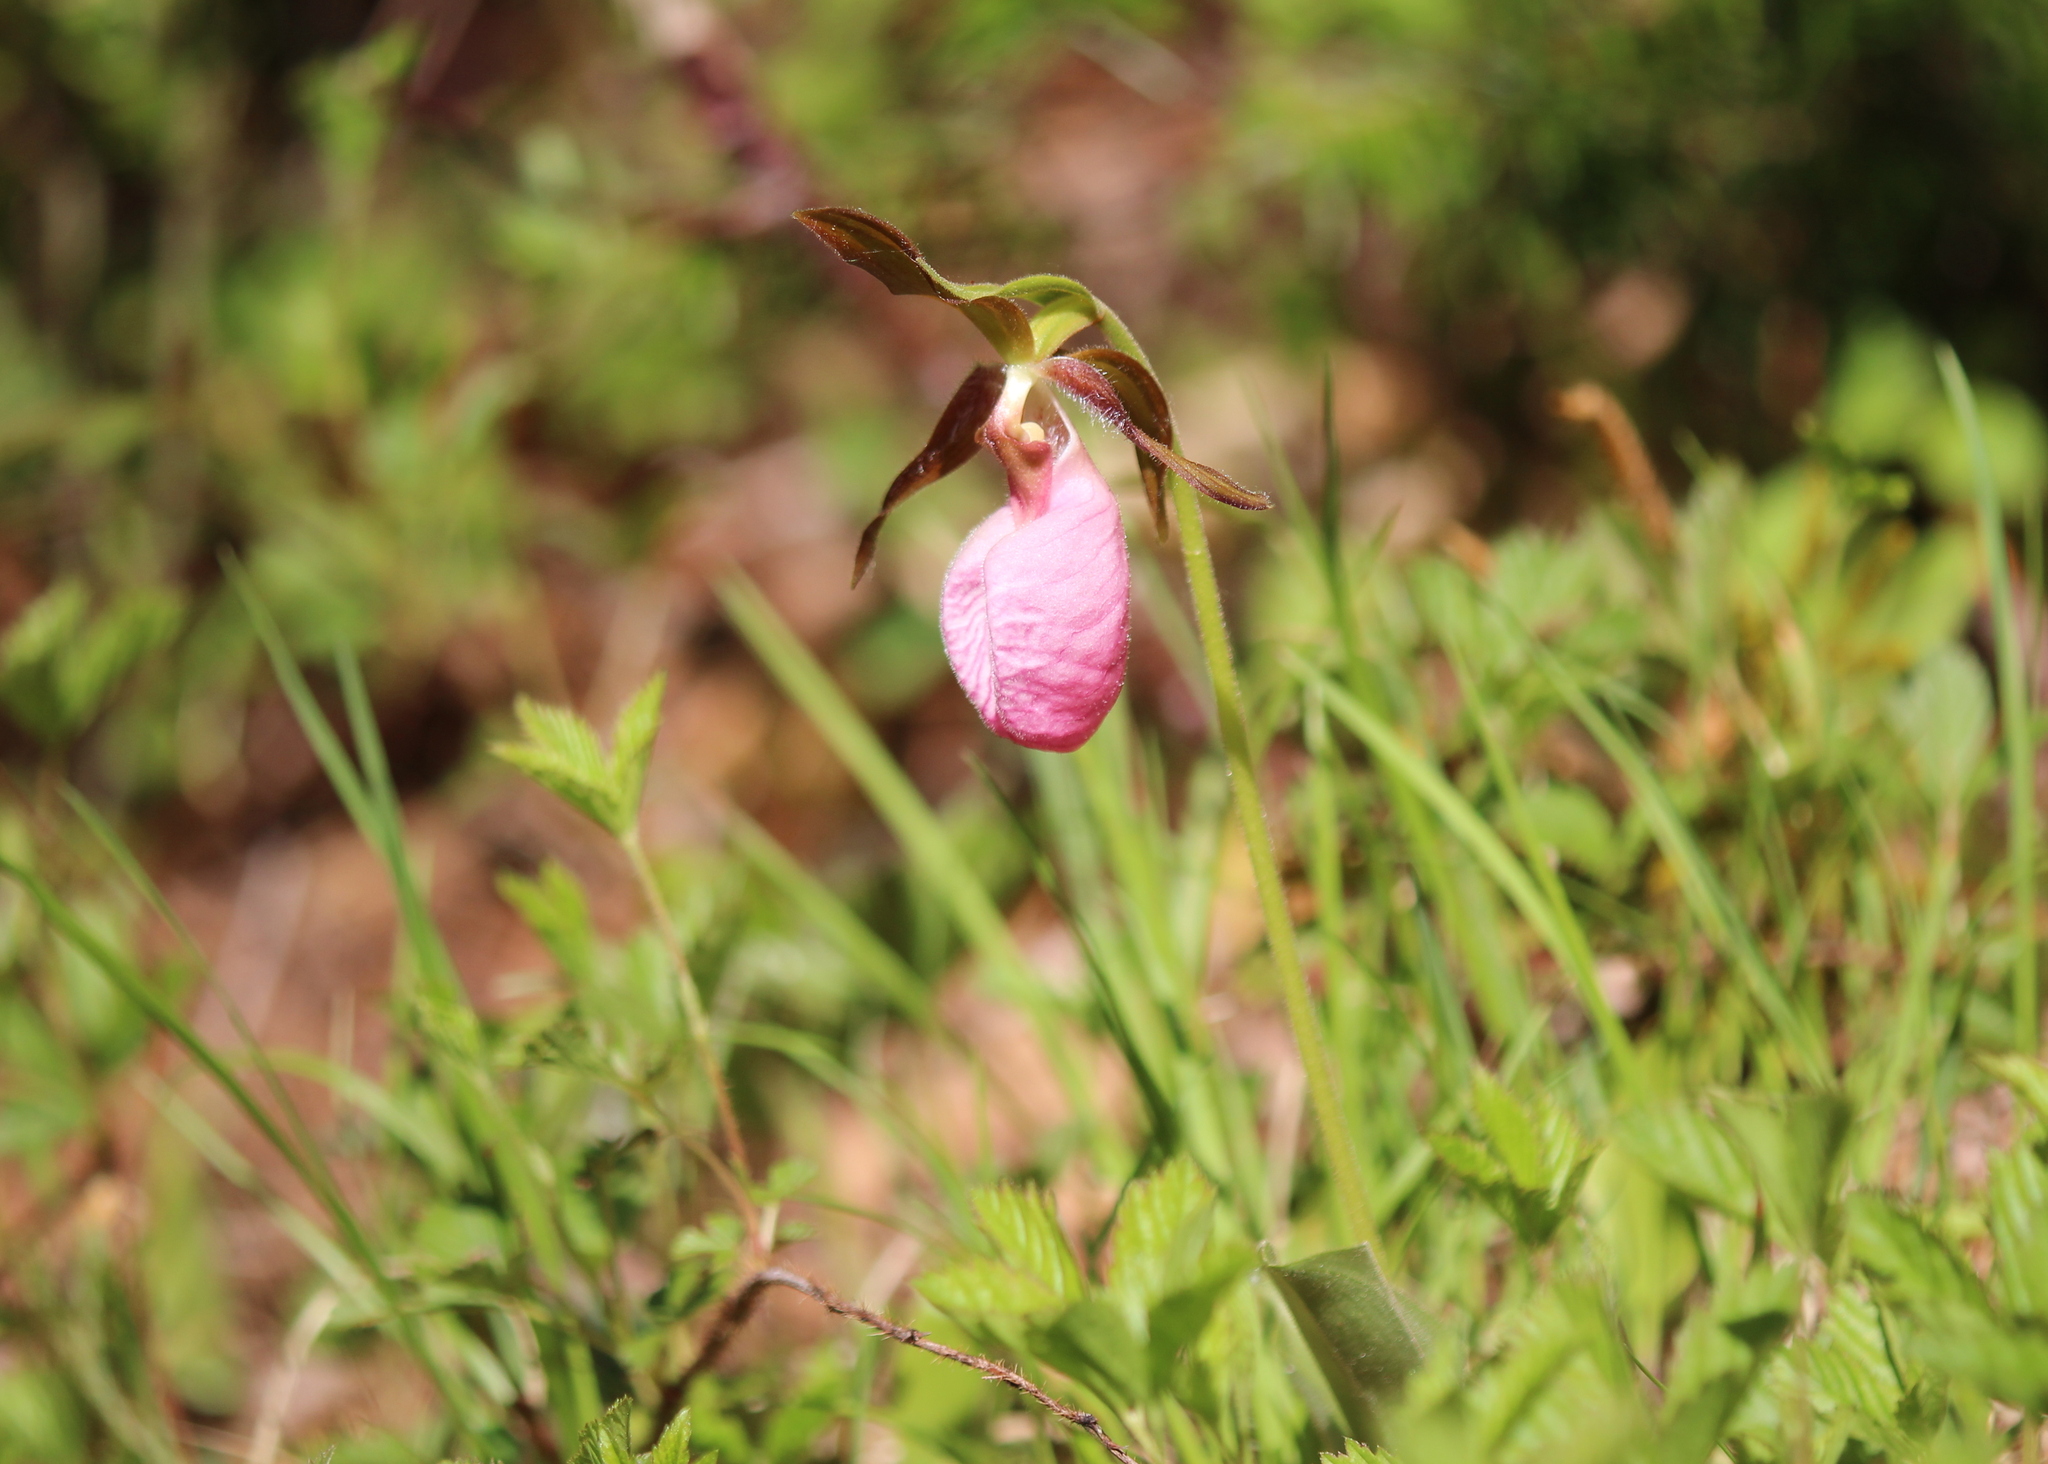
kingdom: Plantae
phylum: Tracheophyta
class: Liliopsida
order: Asparagales
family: Orchidaceae
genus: Cypripedium
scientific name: Cypripedium acaule
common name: Pink lady's-slipper
